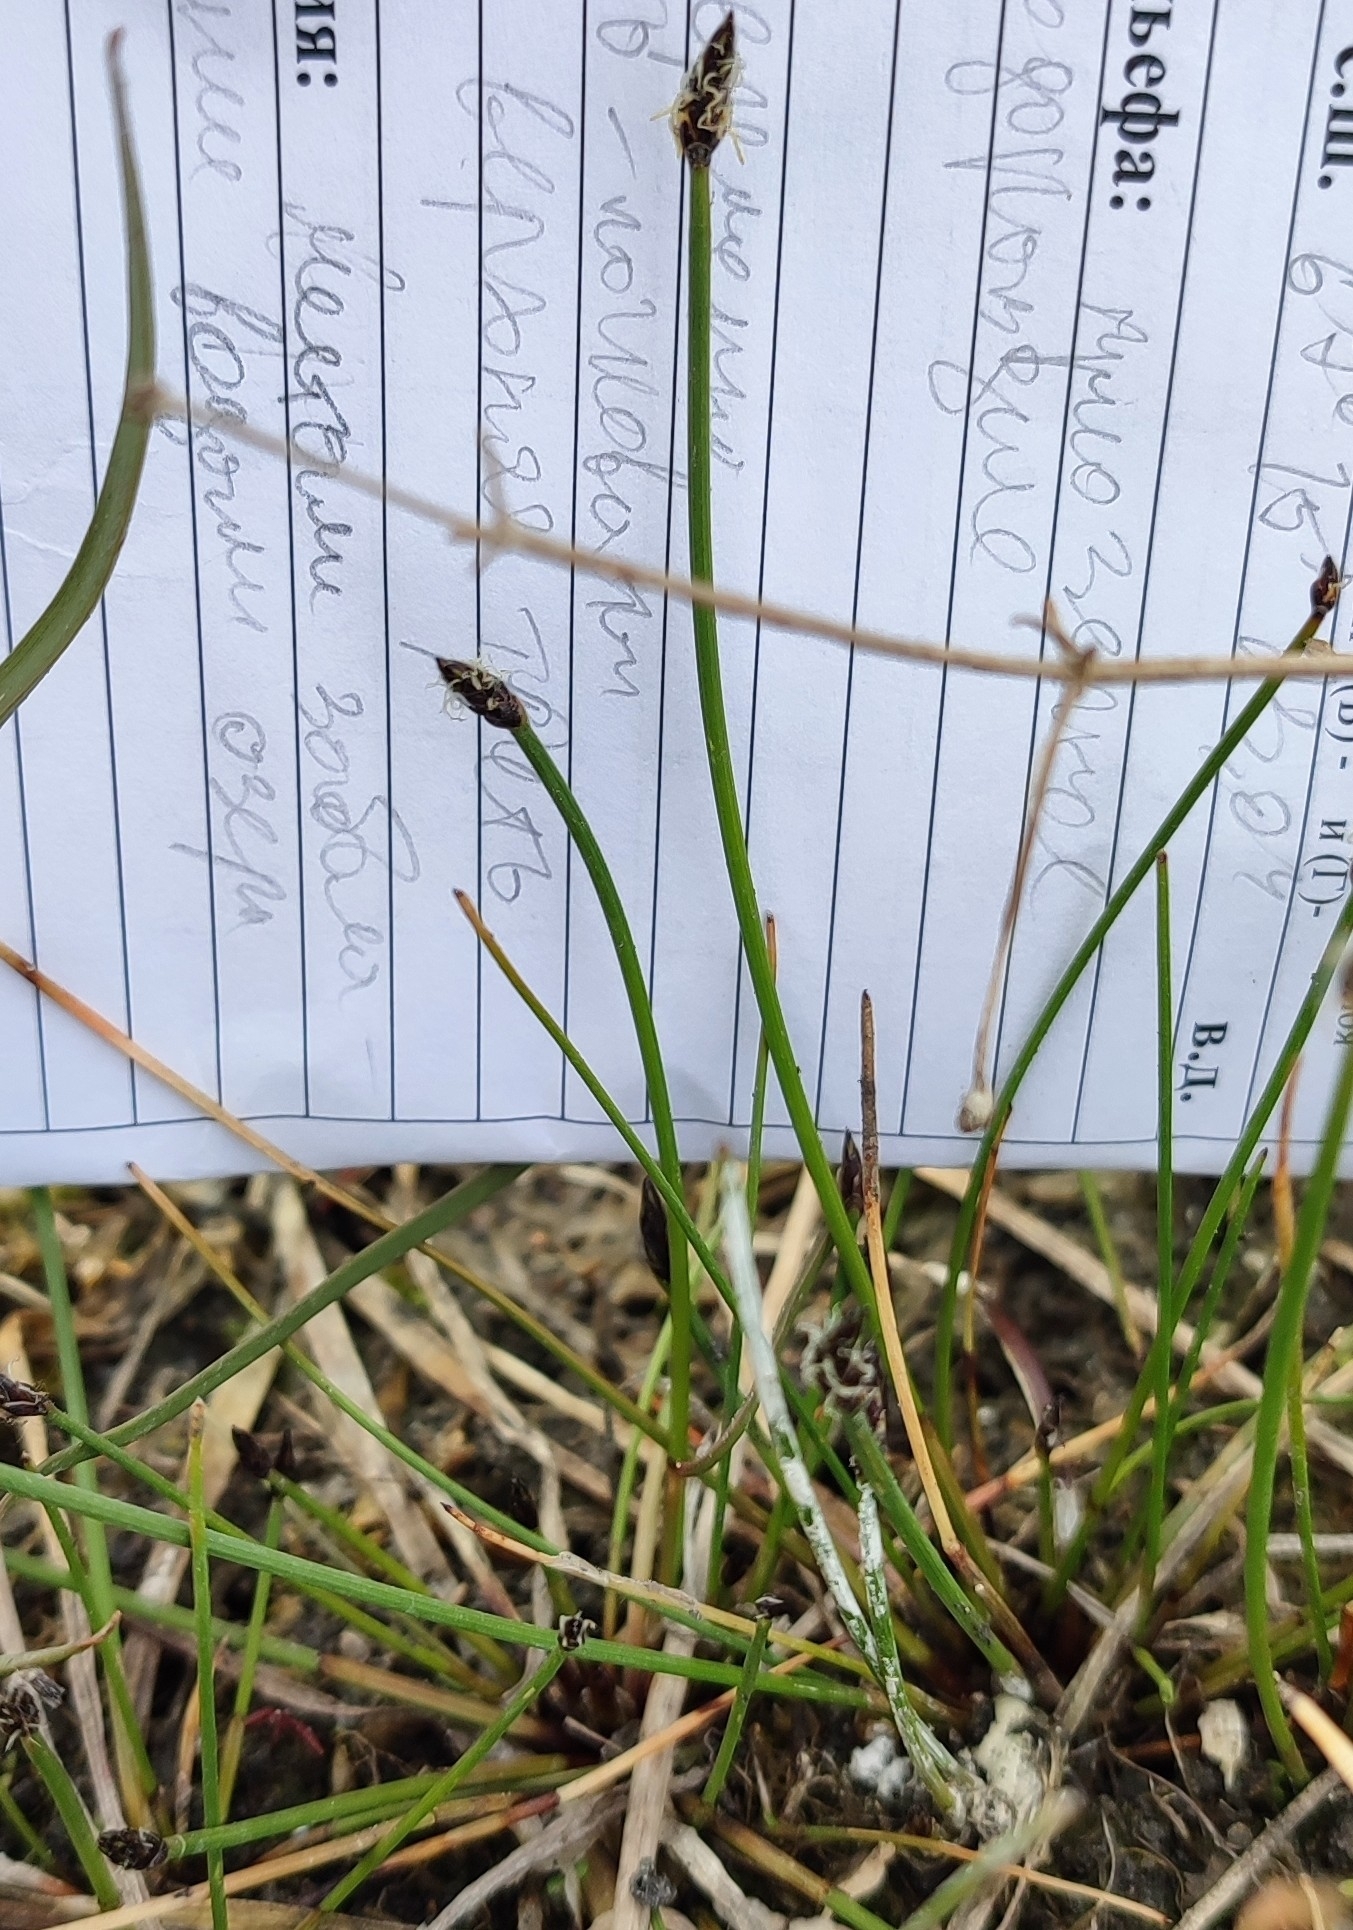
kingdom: Plantae
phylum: Tracheophyta
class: Liliopsida
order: Poales
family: Cyperaceae
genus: Eleocharis
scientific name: Eleocharis palustris
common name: Common spike-rush
